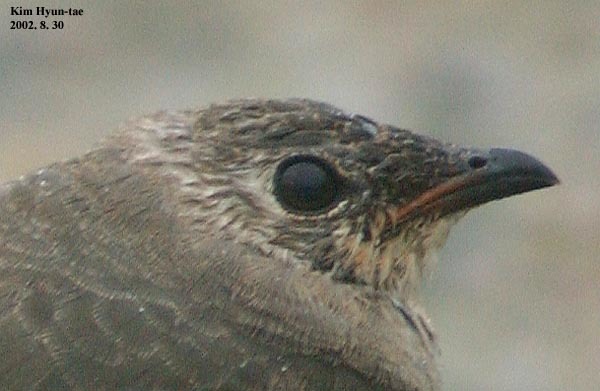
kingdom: Animalia
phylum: Chordata
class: Aves
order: Charadriiformes
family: Glareolidae
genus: Glareola
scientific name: Glareola maldivarum
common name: Oriental pratincole
